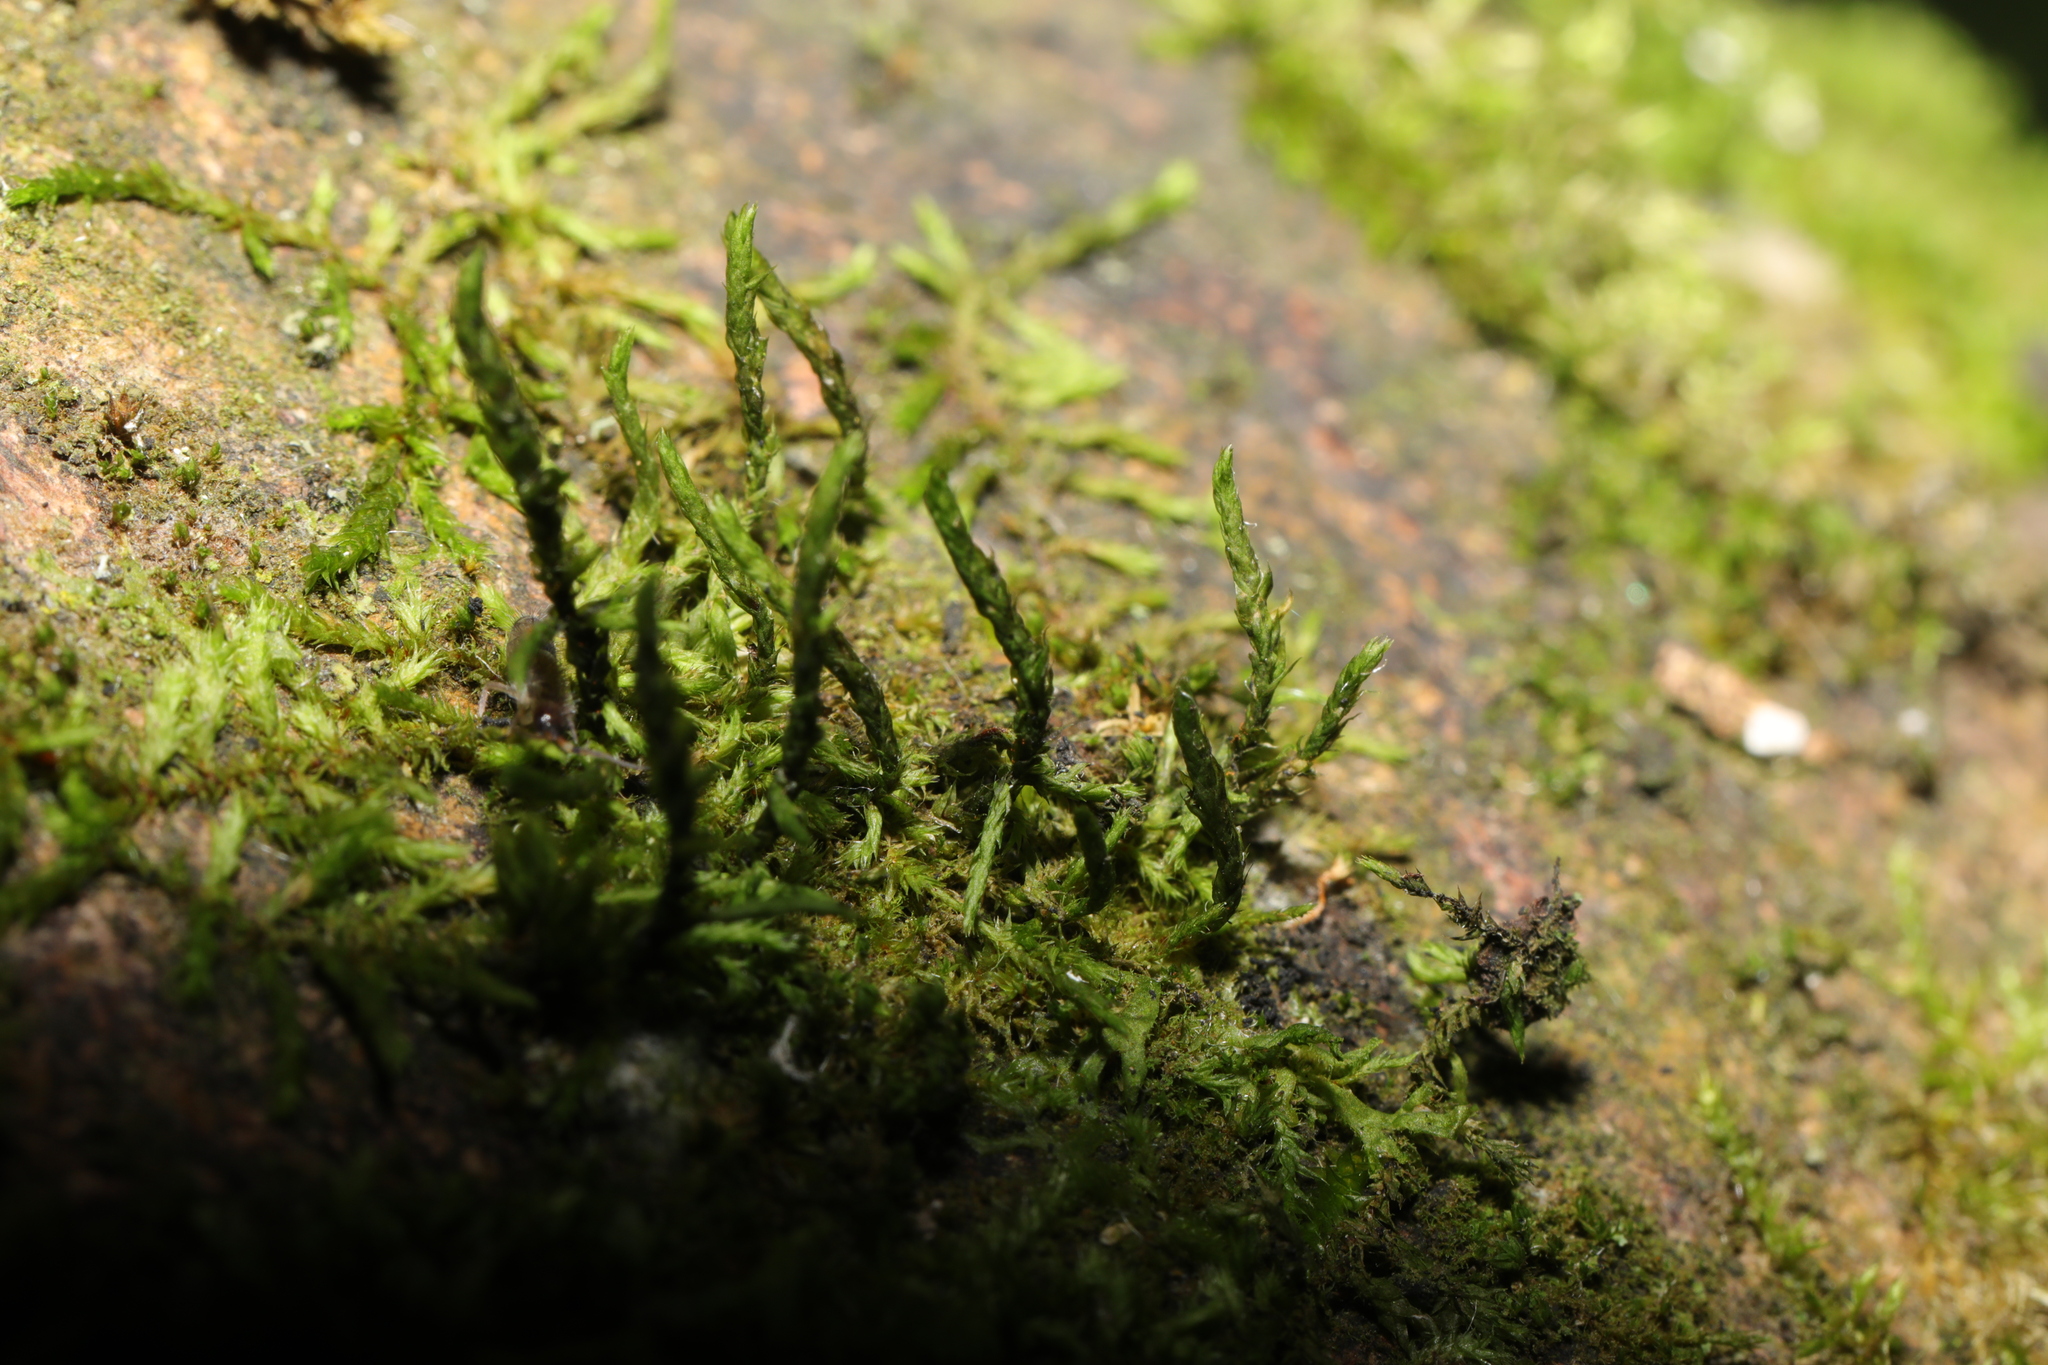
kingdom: Plantae
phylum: Bryophyta
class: Bryopsida
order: Hypnales
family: Cryphaeaceae
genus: Cryphaea
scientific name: Cryphaea heteromalla
